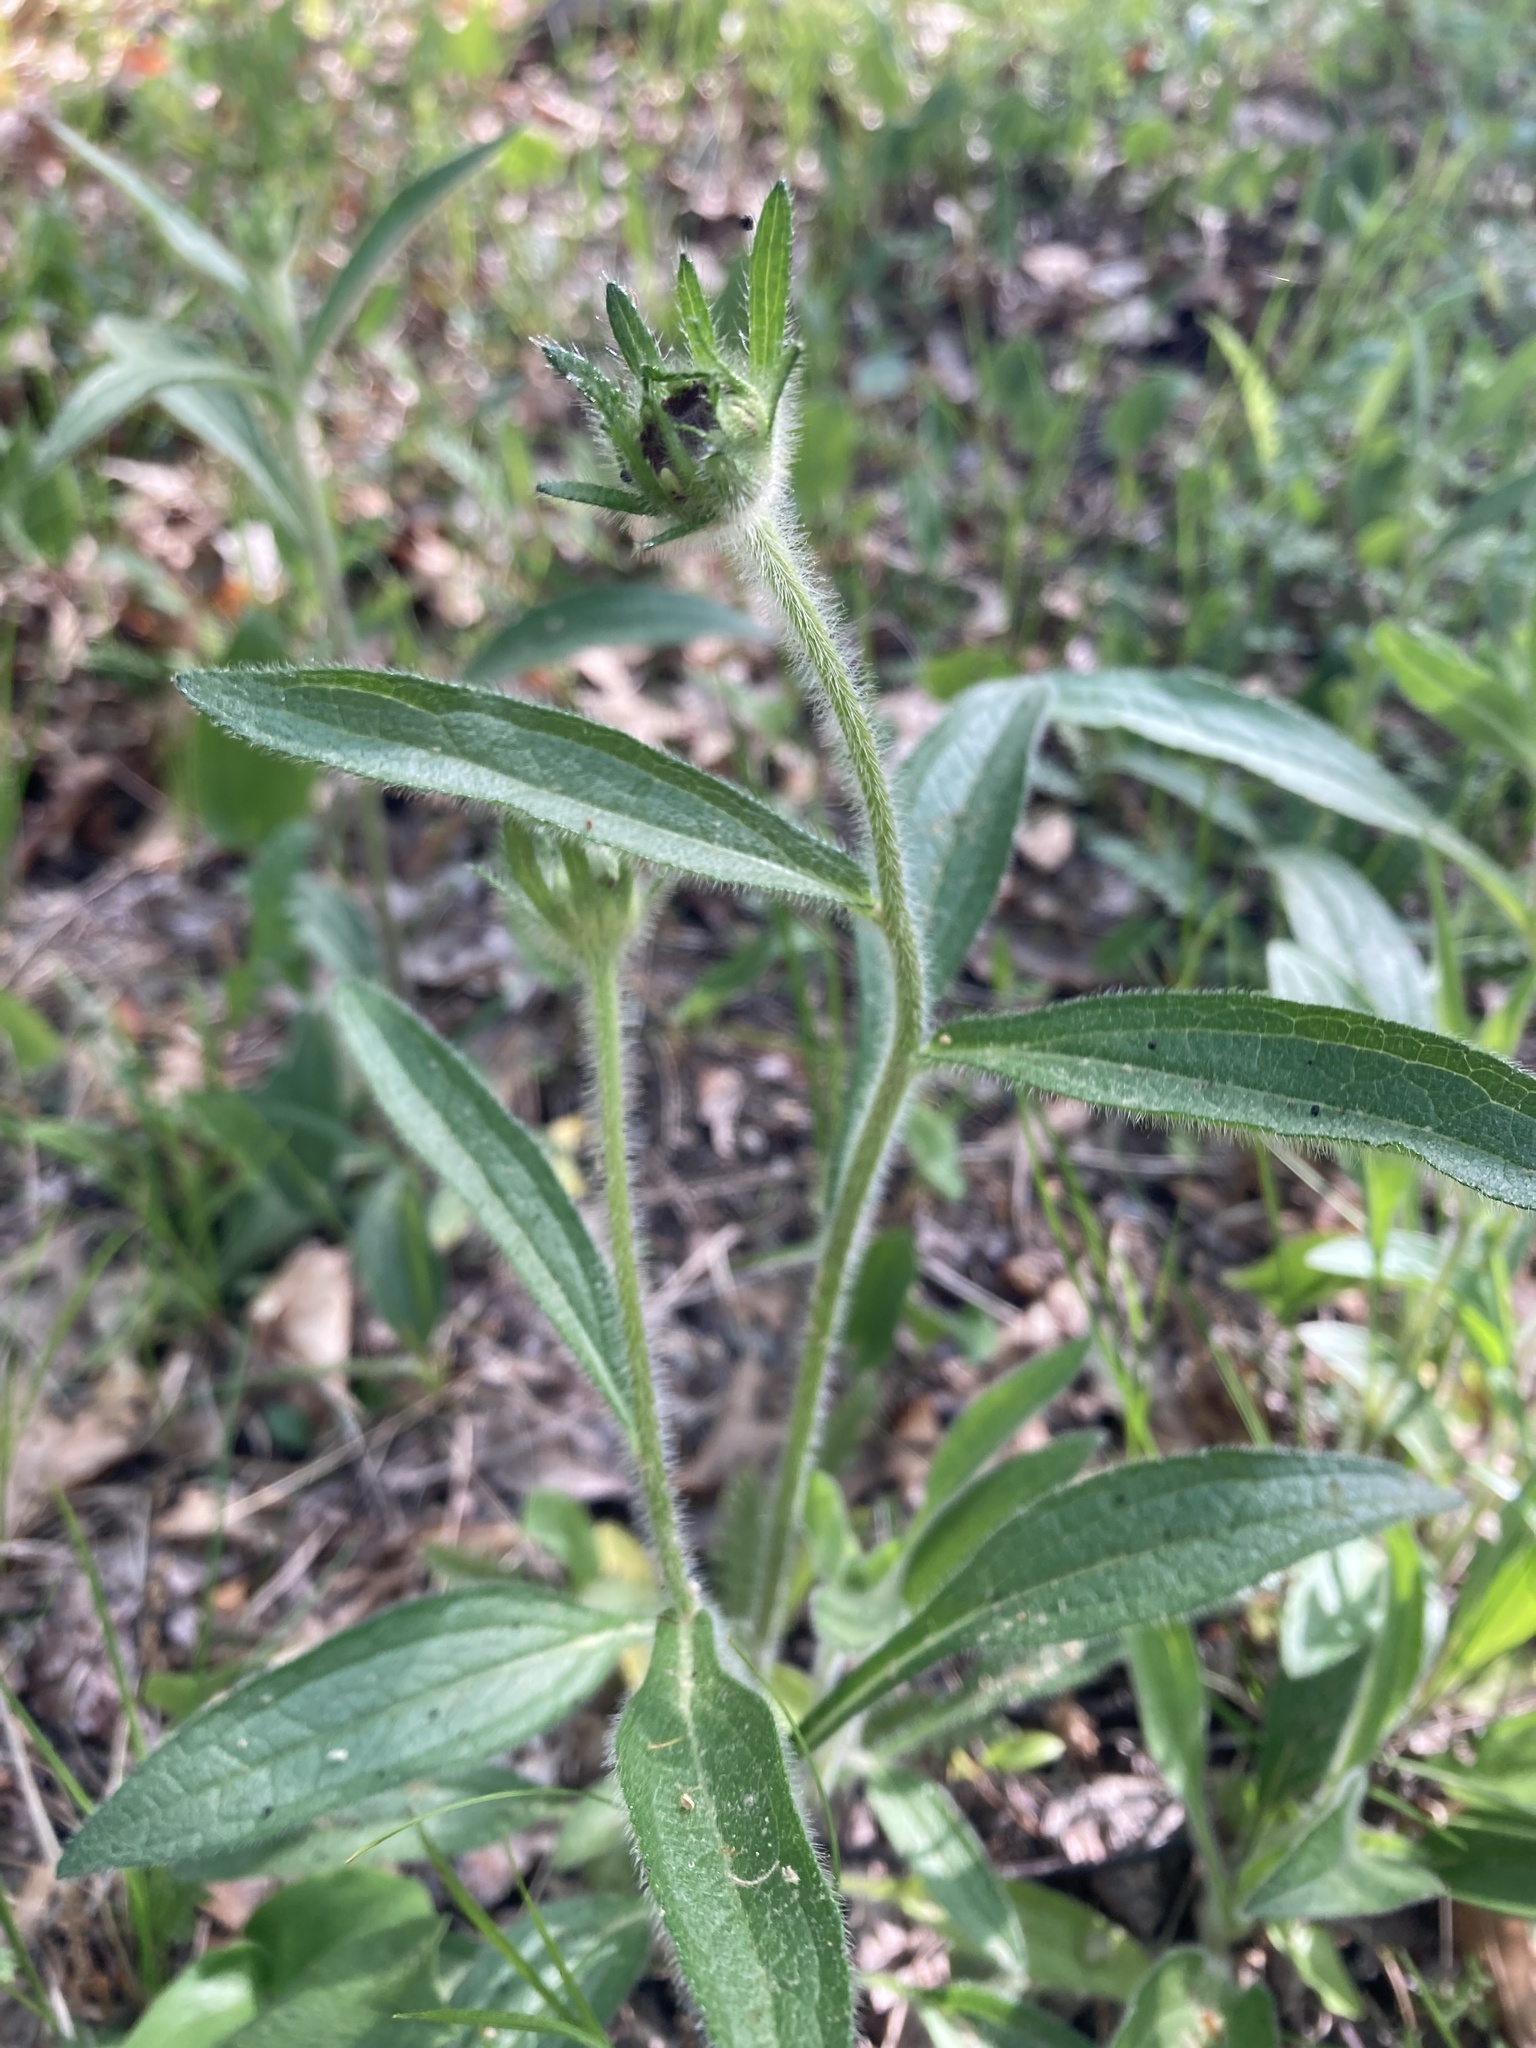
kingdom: Plantae
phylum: Tracheophyta
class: Magnoliopsida
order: Asterales
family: Asteraceae
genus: Rudbeckia
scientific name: Rudbeckia hirta
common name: Black-eyed-susan
